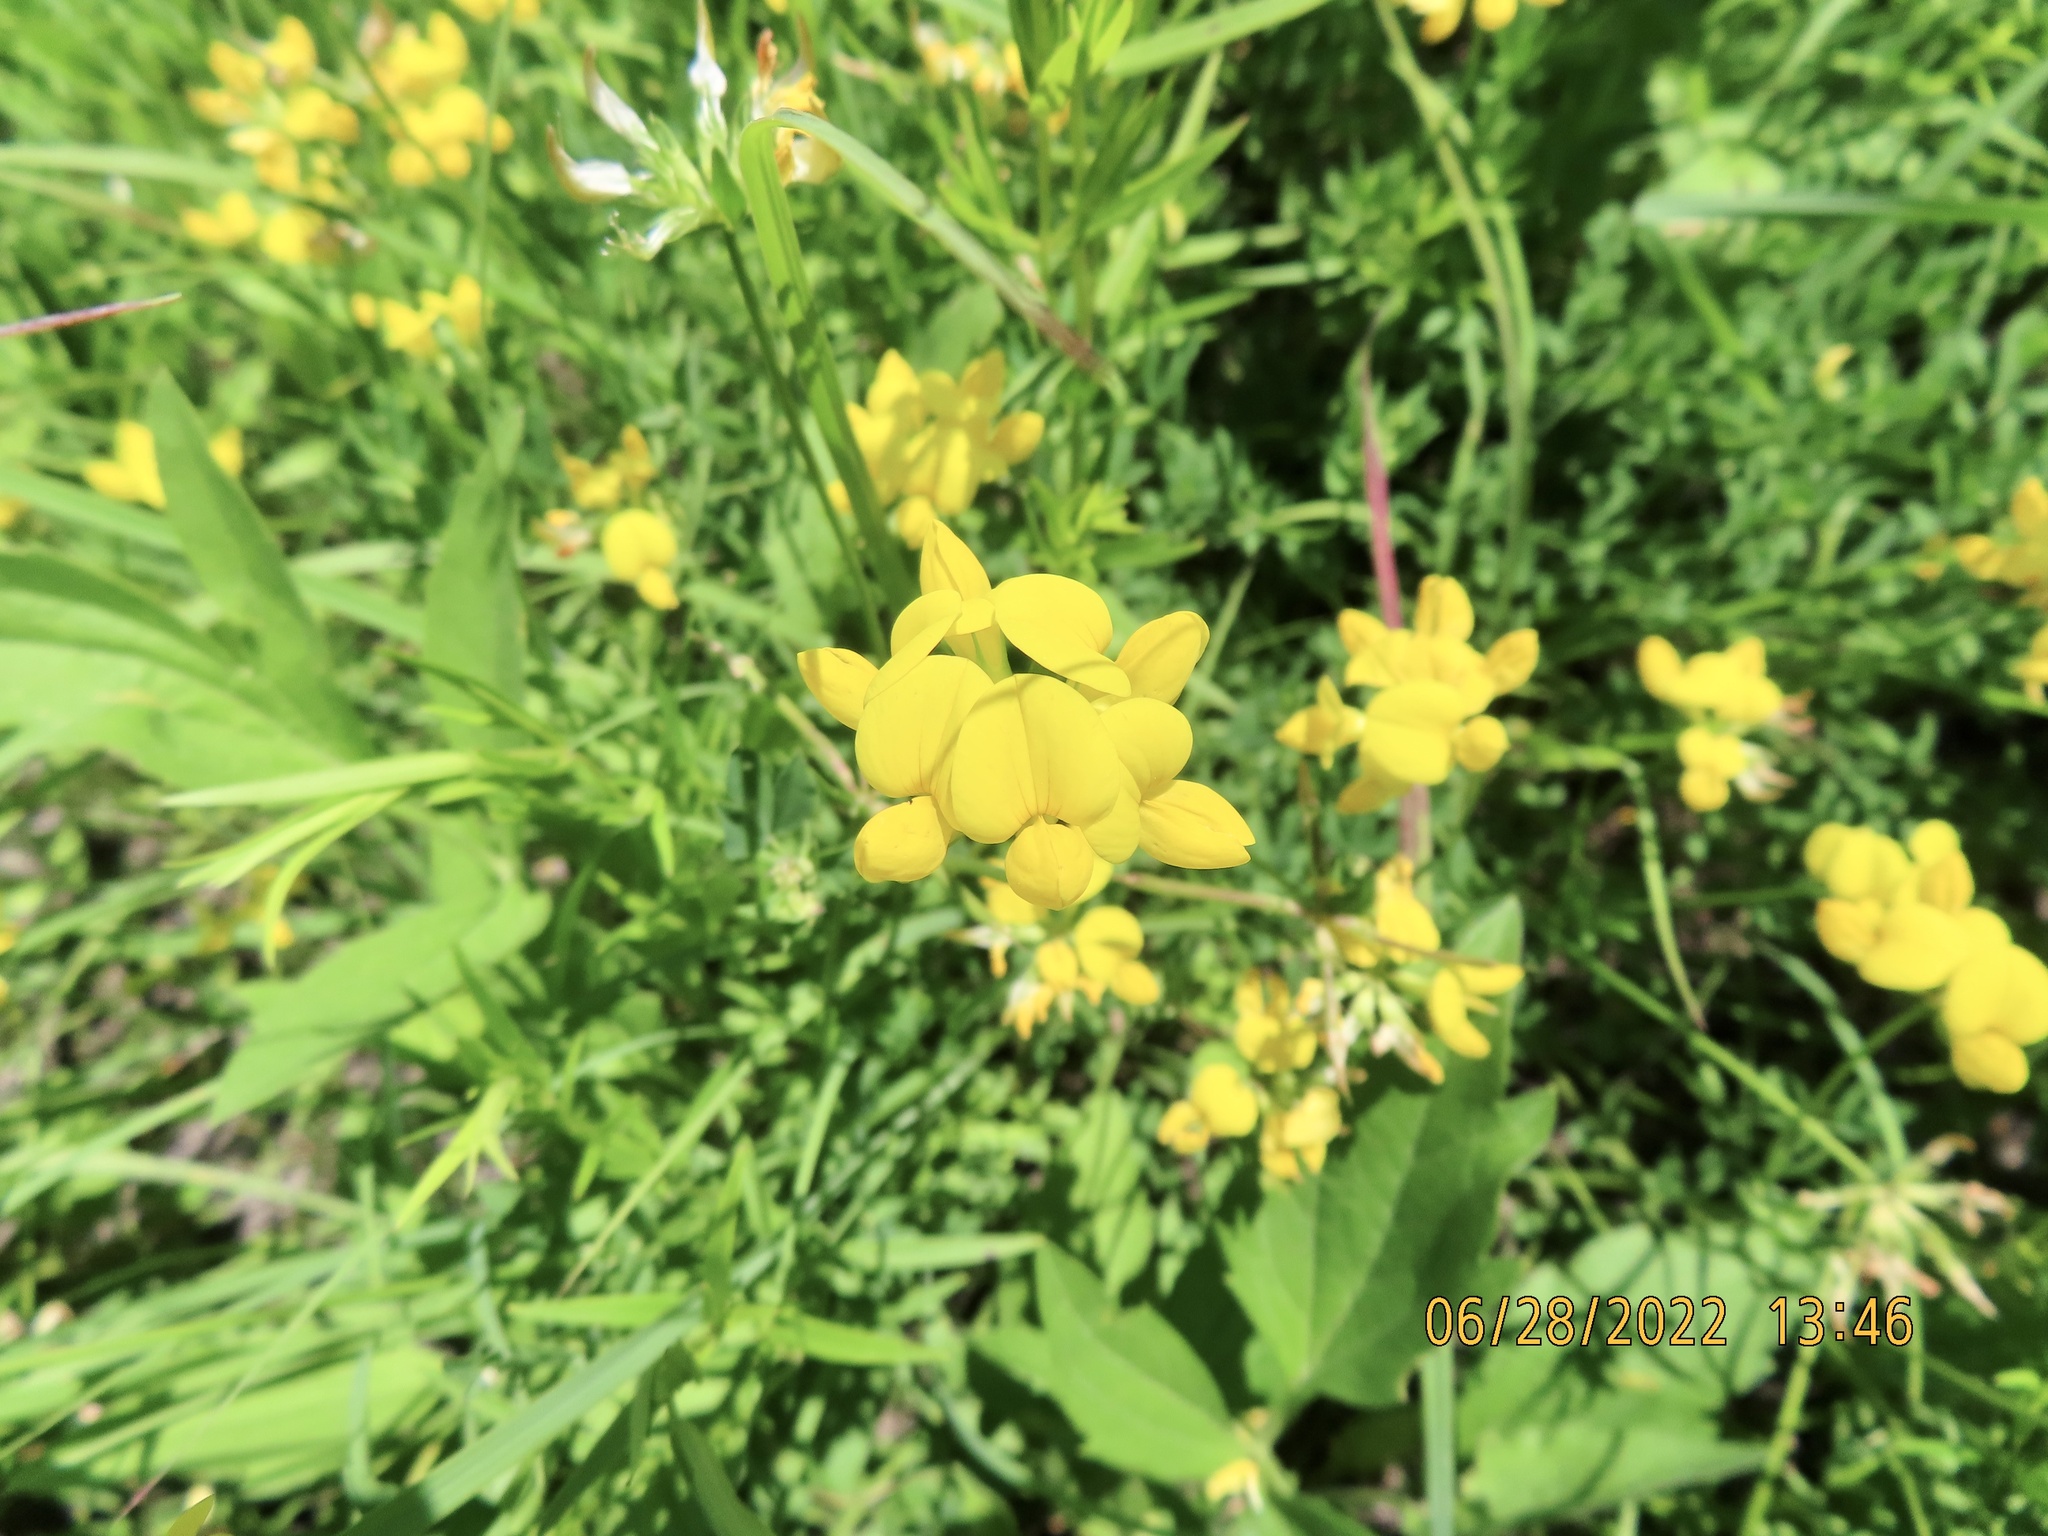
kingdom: Plantae
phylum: Tracheophyta
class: Magnoliopsida
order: Fabales
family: Fabaceae
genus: Lotus
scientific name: Lotus corniculatus
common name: Common bird's-foot-trefoil
